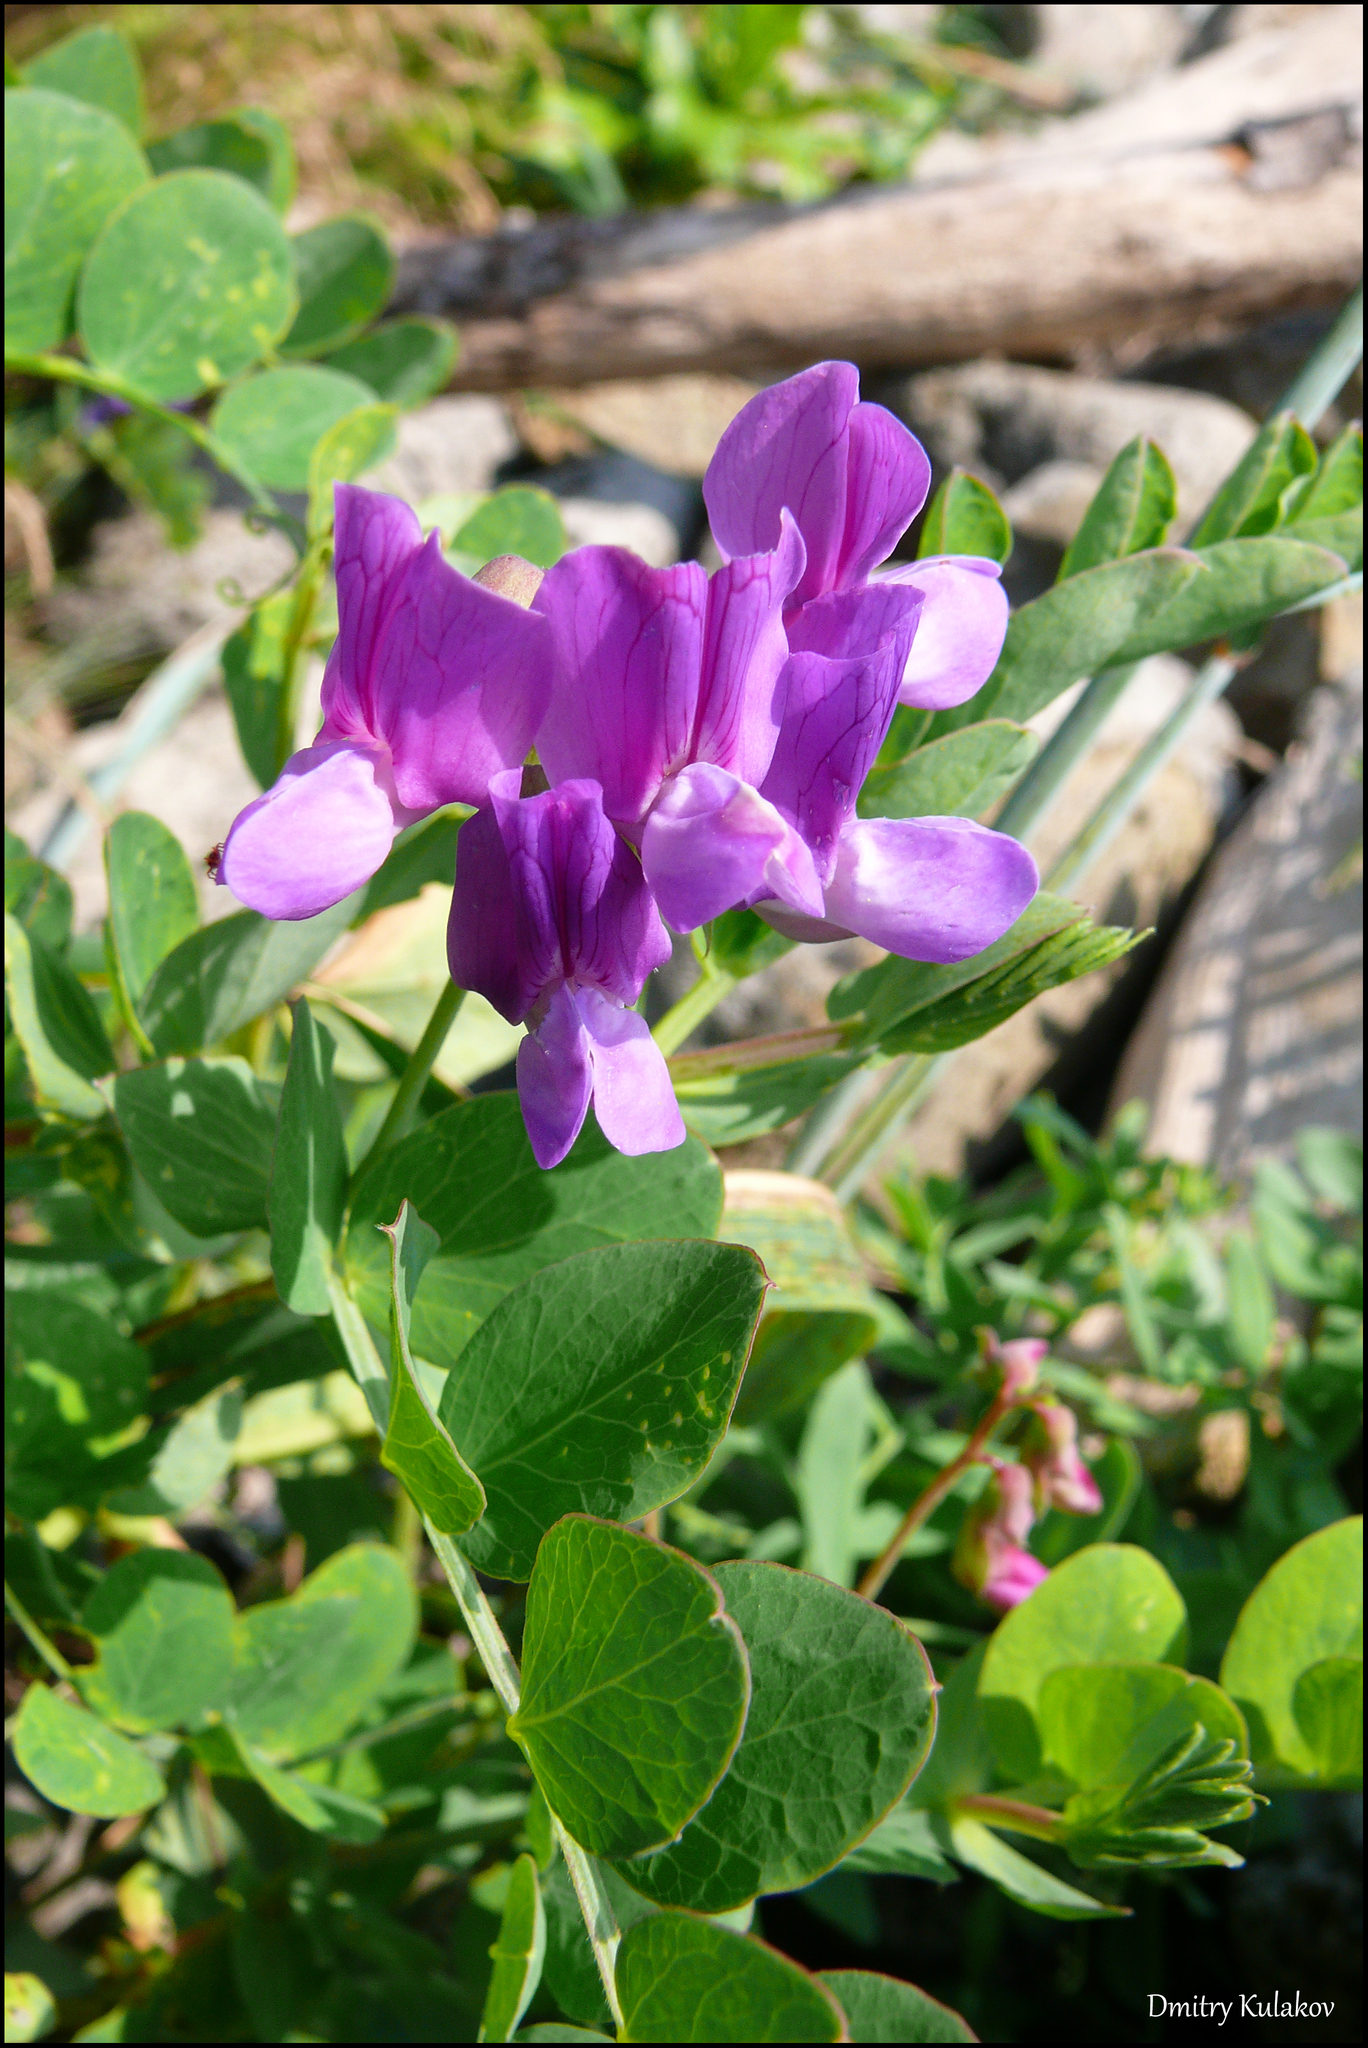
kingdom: Plantae
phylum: Tracheophyta
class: Magnoliopsida
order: Fabales
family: Fabaceae
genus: Lathyrus
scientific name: Lathyrus japonicus
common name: Sea pea
